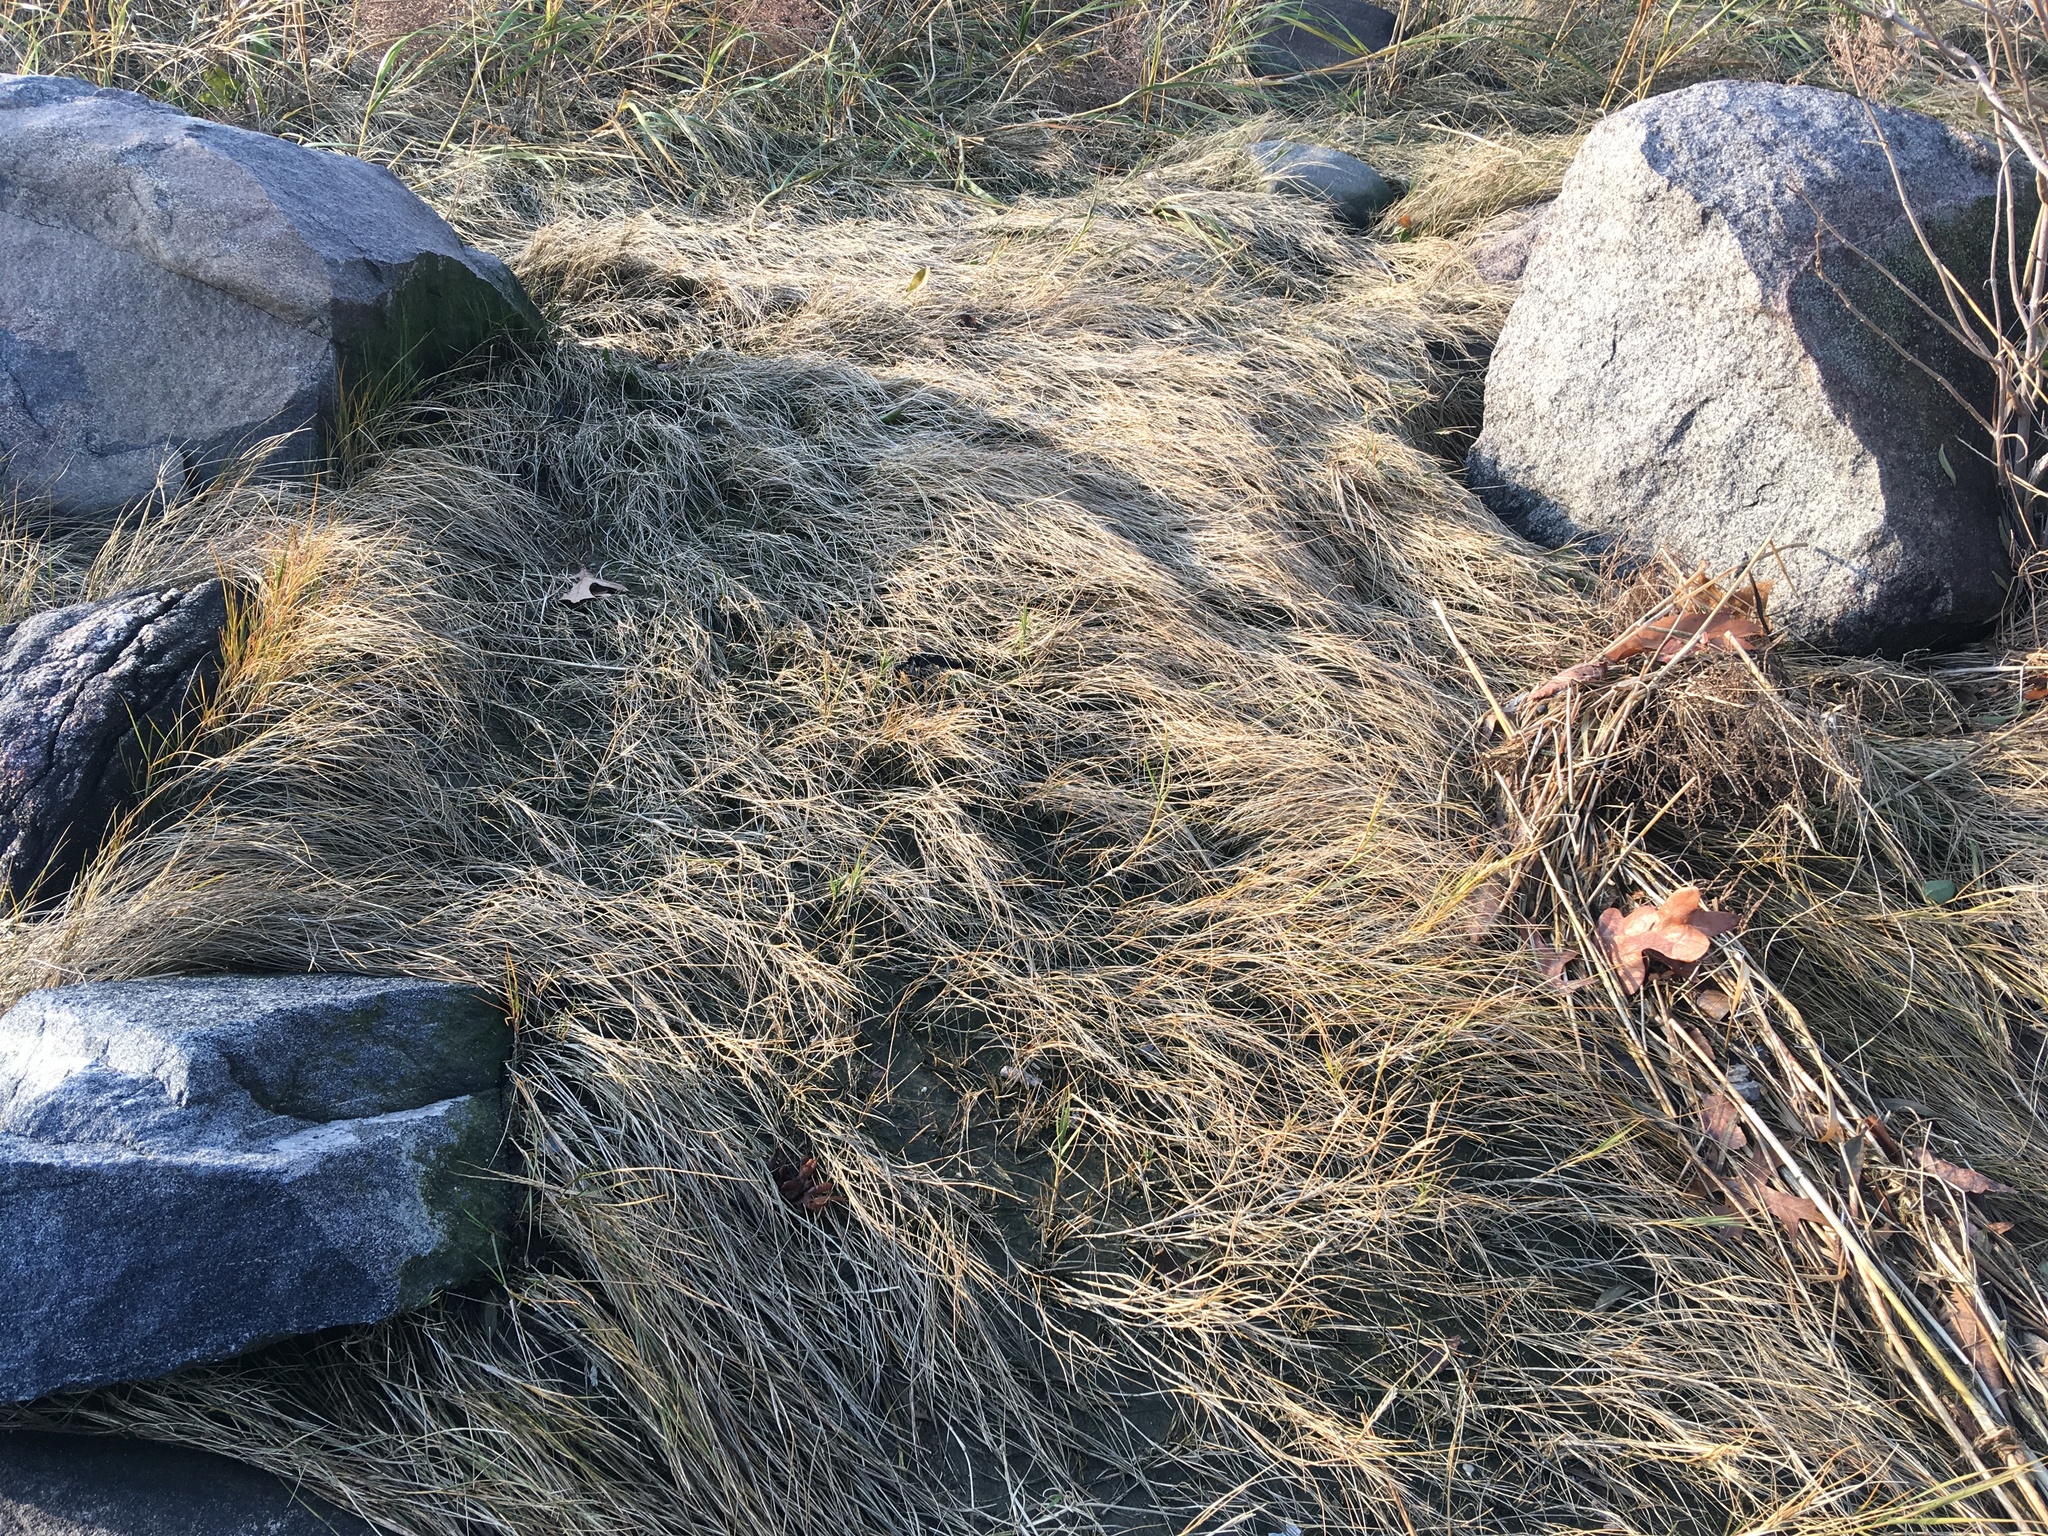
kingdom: Plantae
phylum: Tracheophyta
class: Liliopsida
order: Poales
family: Poaceae
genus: Sporobolus
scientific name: Sporobolus pumilus
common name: Highwater grass
